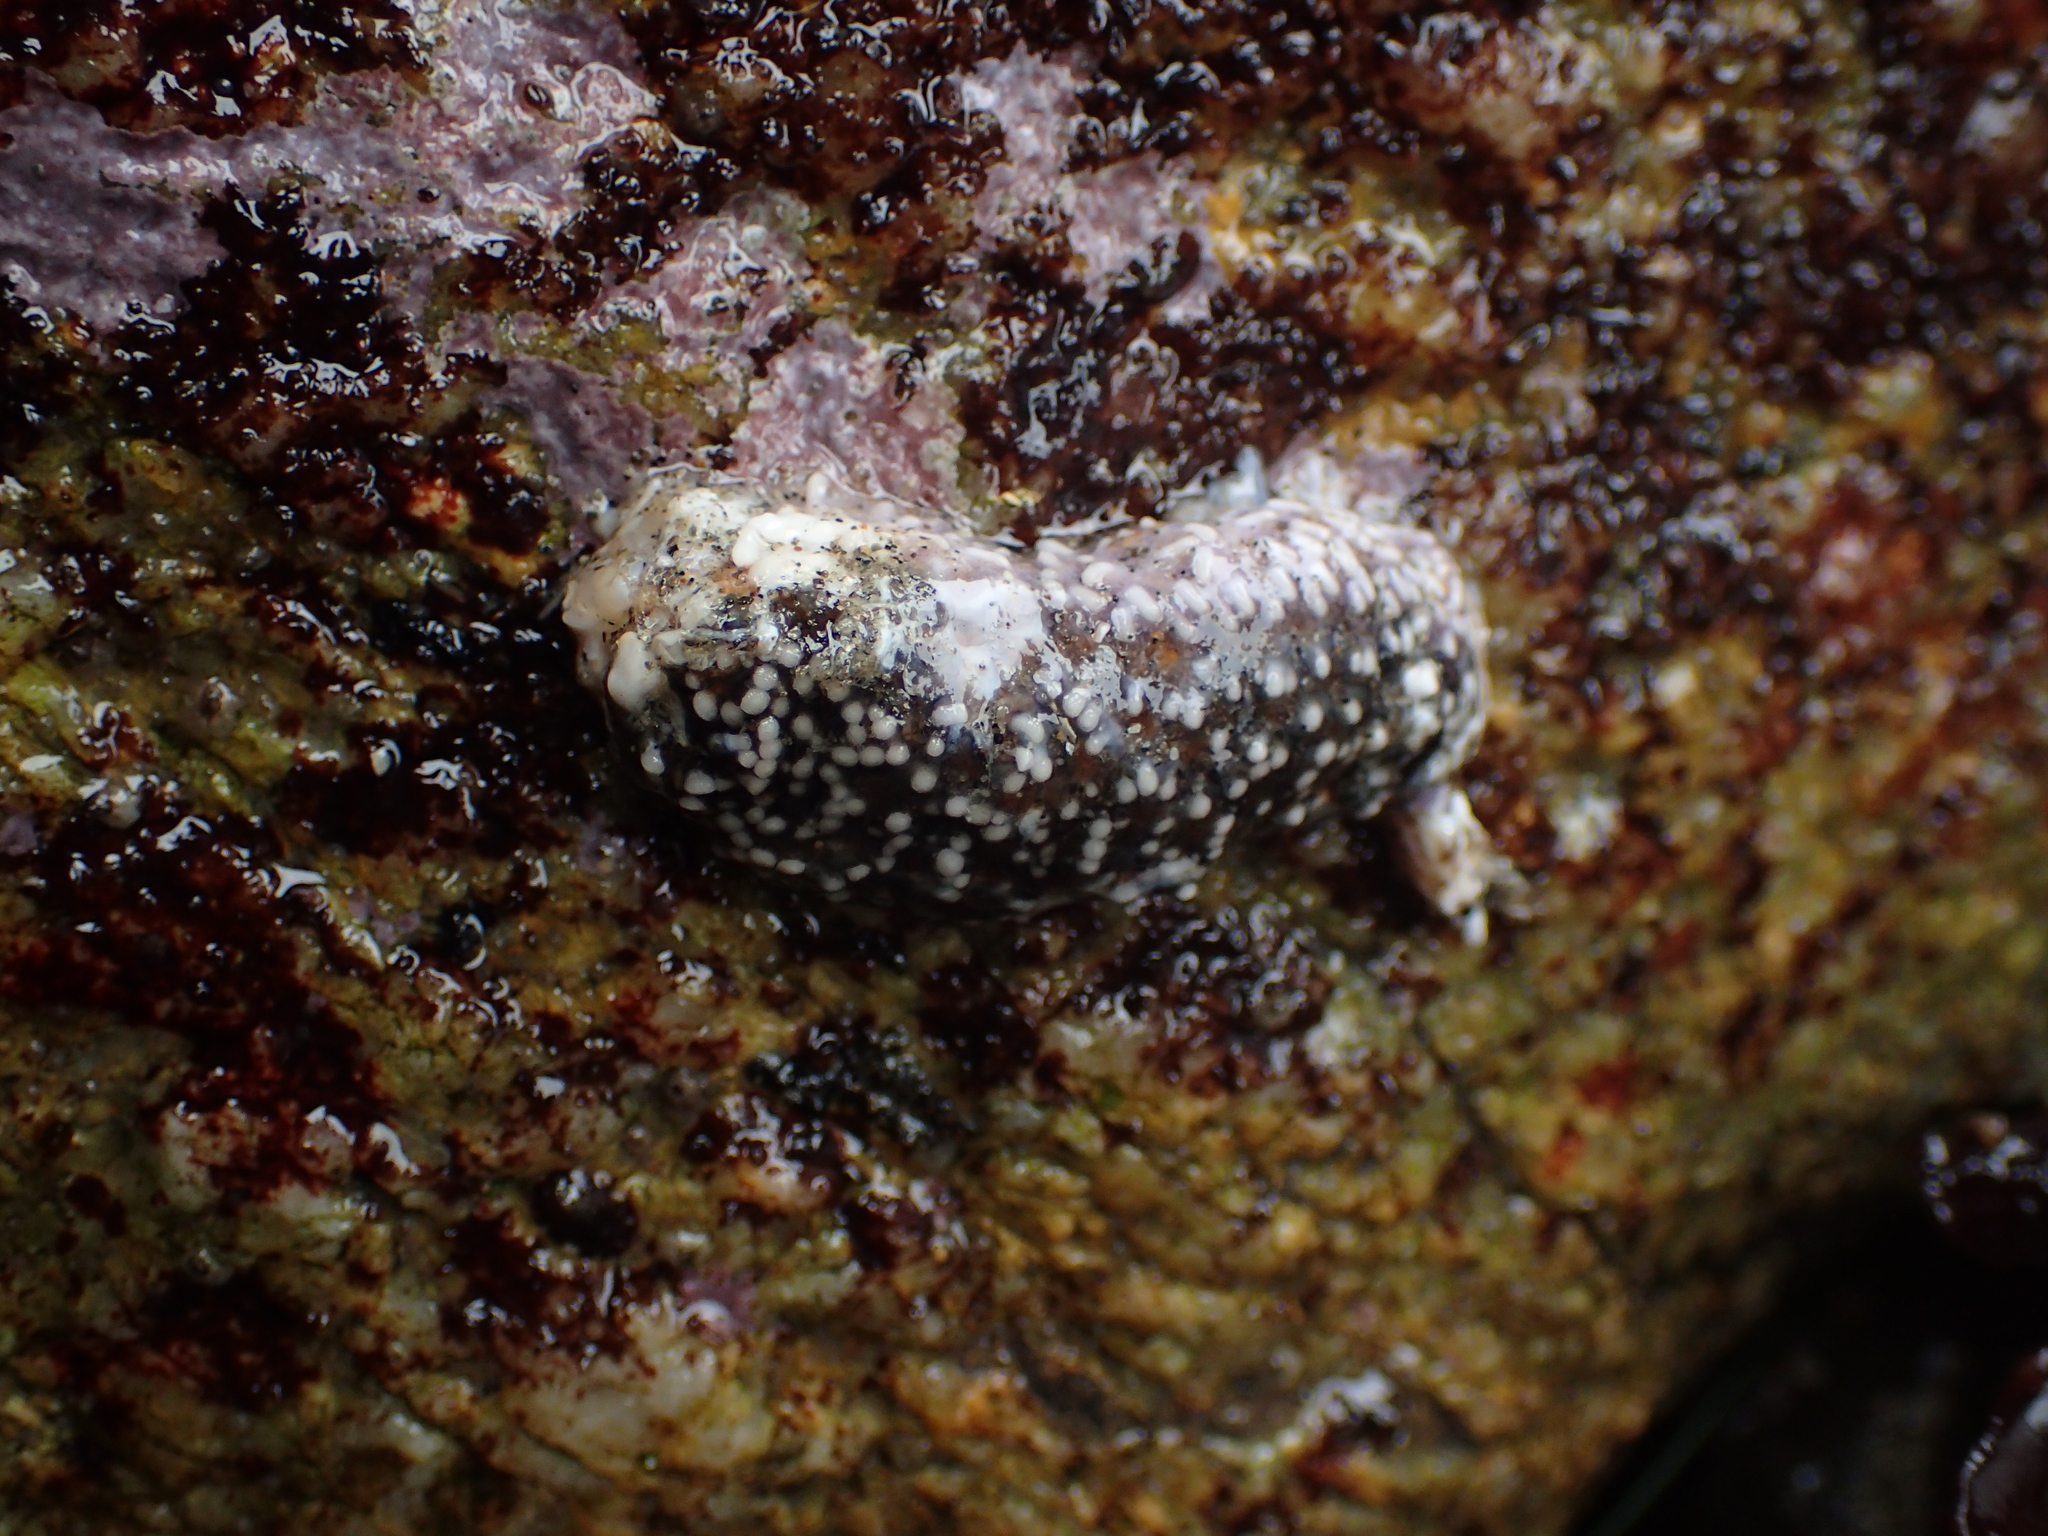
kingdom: Animalia
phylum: Echinodermata
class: Asteroidea
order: Forcipulatida
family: Asteriidae
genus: Pisaster
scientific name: Pisaster ochraceus
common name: Ochre stars
